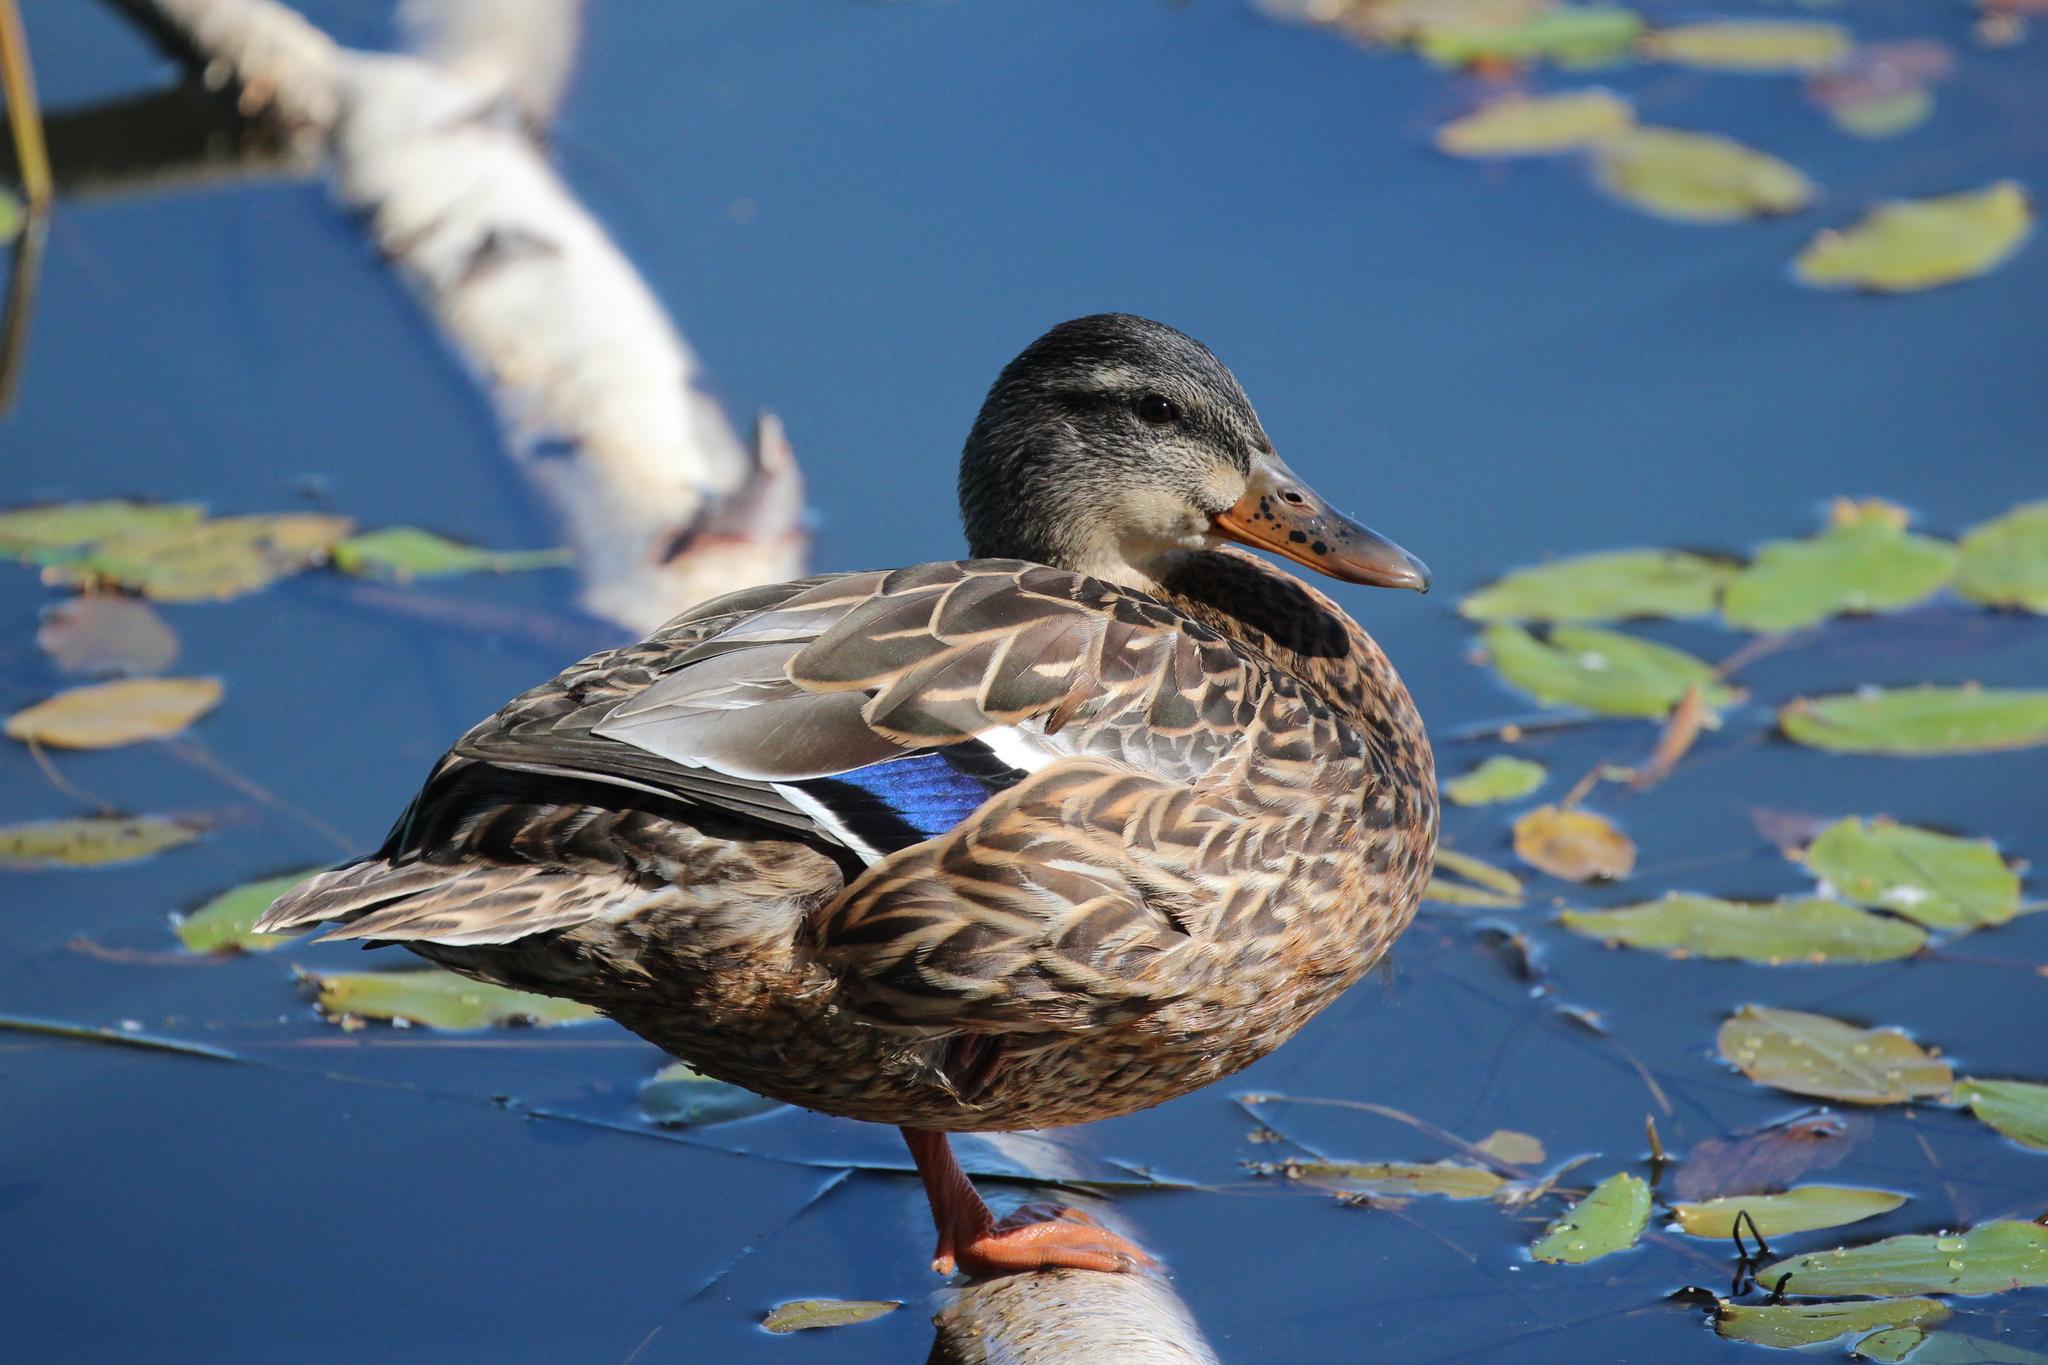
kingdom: Animalia
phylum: Chordata
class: Aves
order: Anseriformes
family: Anatidae
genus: Anas
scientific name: Anas platyrhynchos
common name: Mallard
